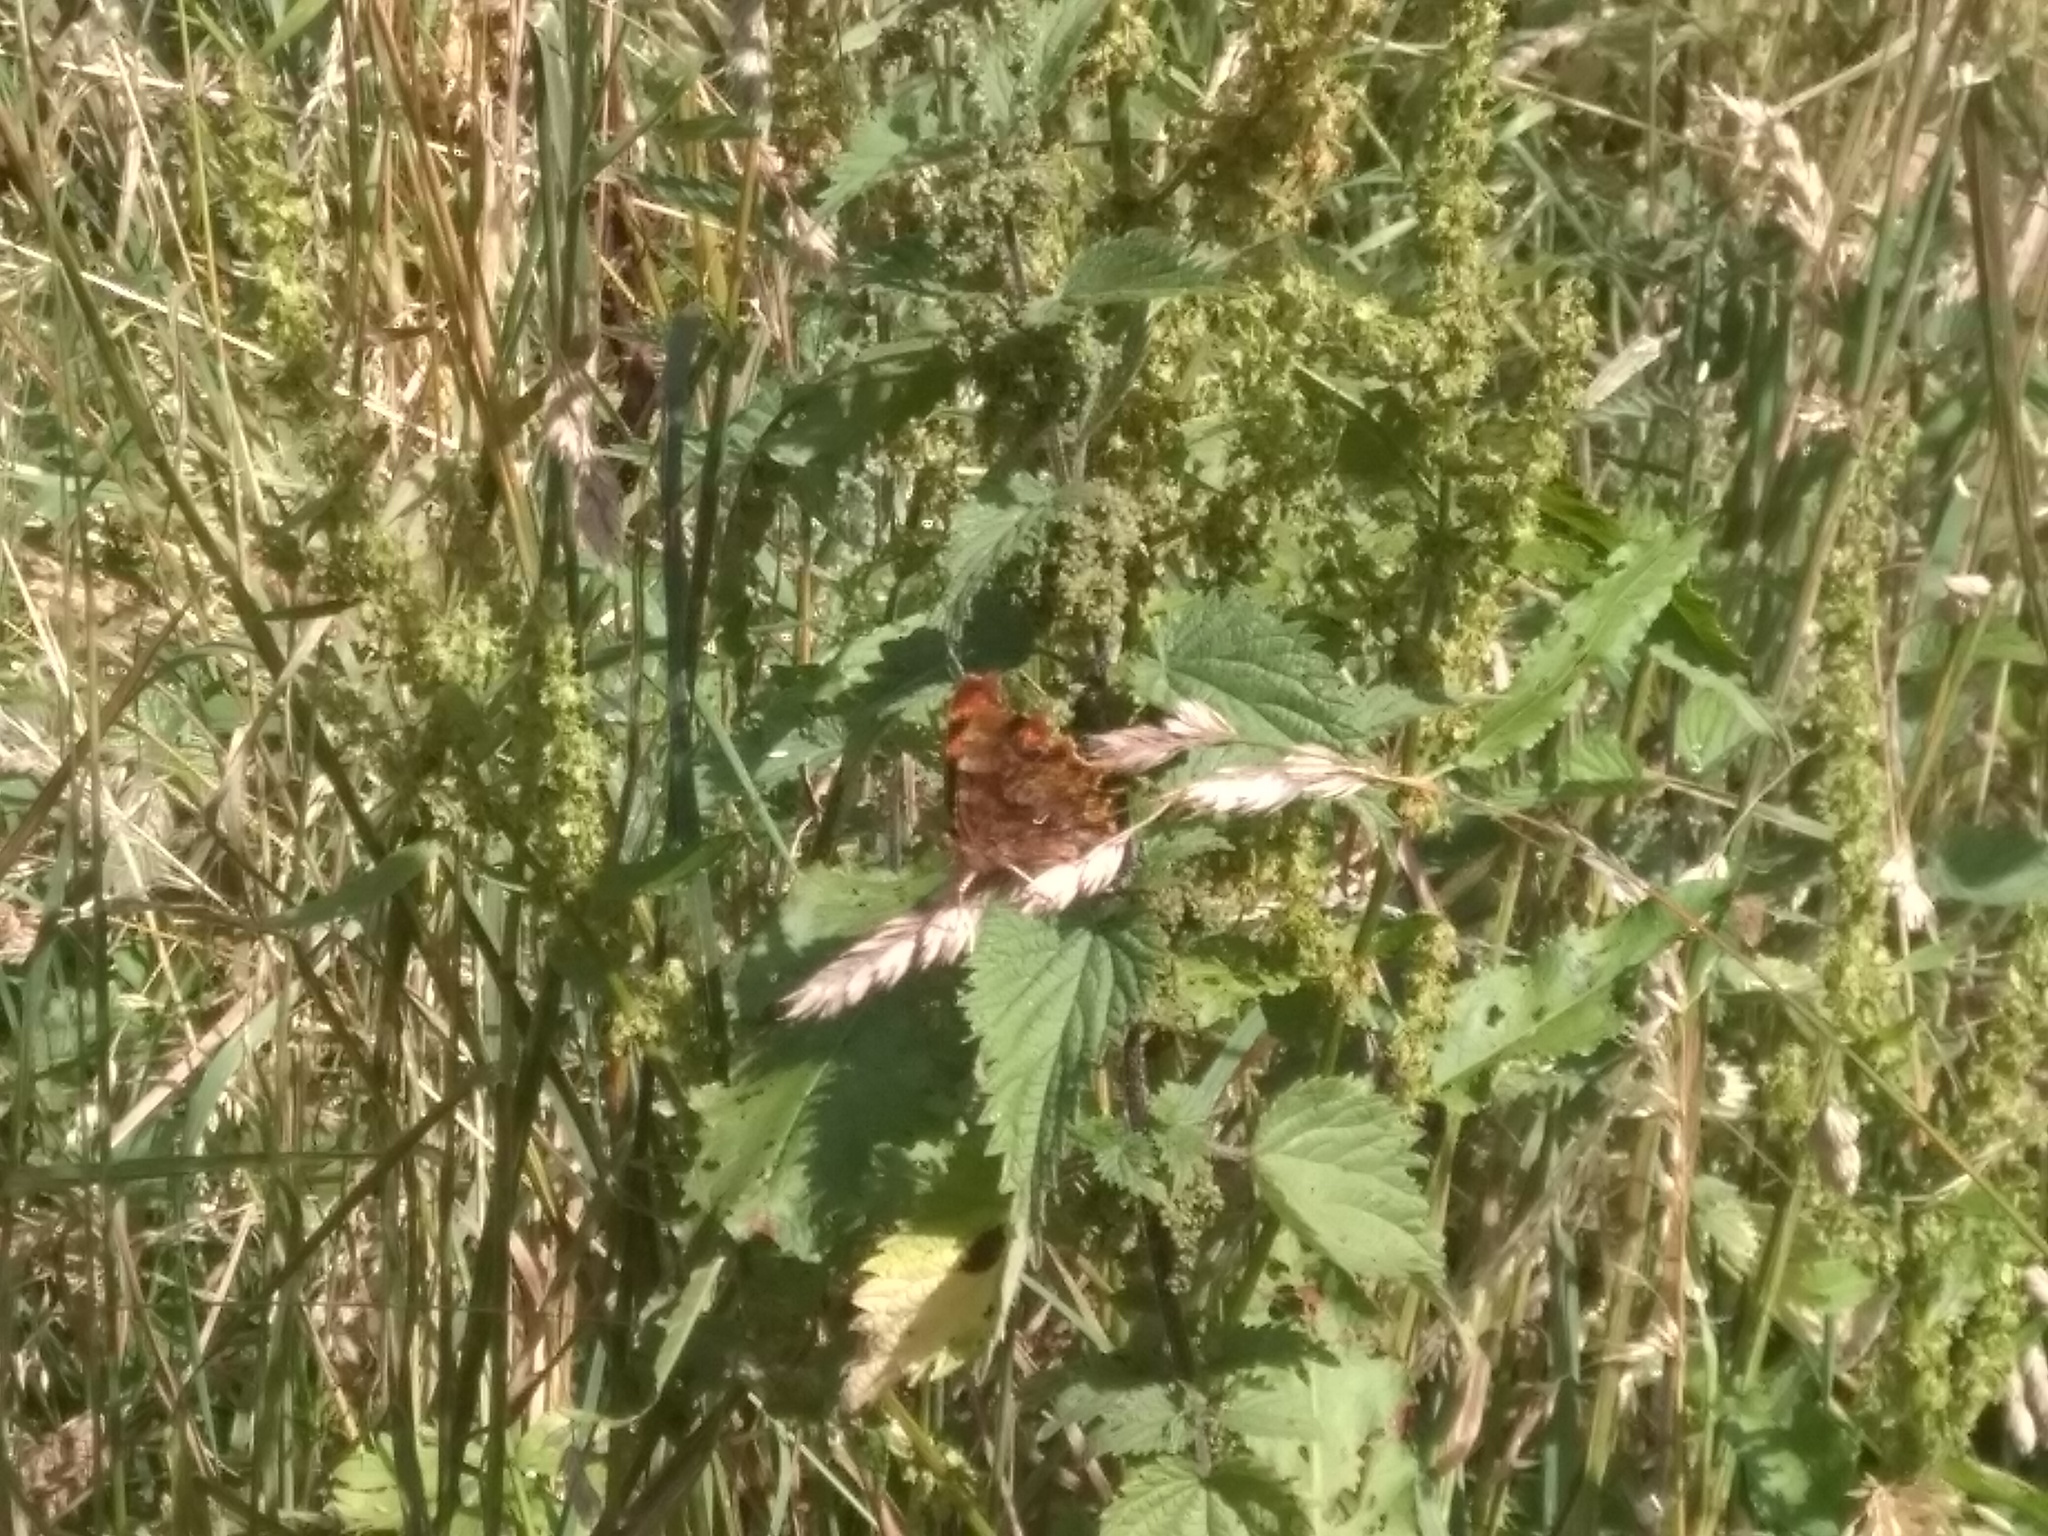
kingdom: Animalia
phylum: Arthropoda
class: Insecta
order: Lepidoptera
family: Nymphalidae
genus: Polygonia
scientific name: Polygonia c-album
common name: Comma
